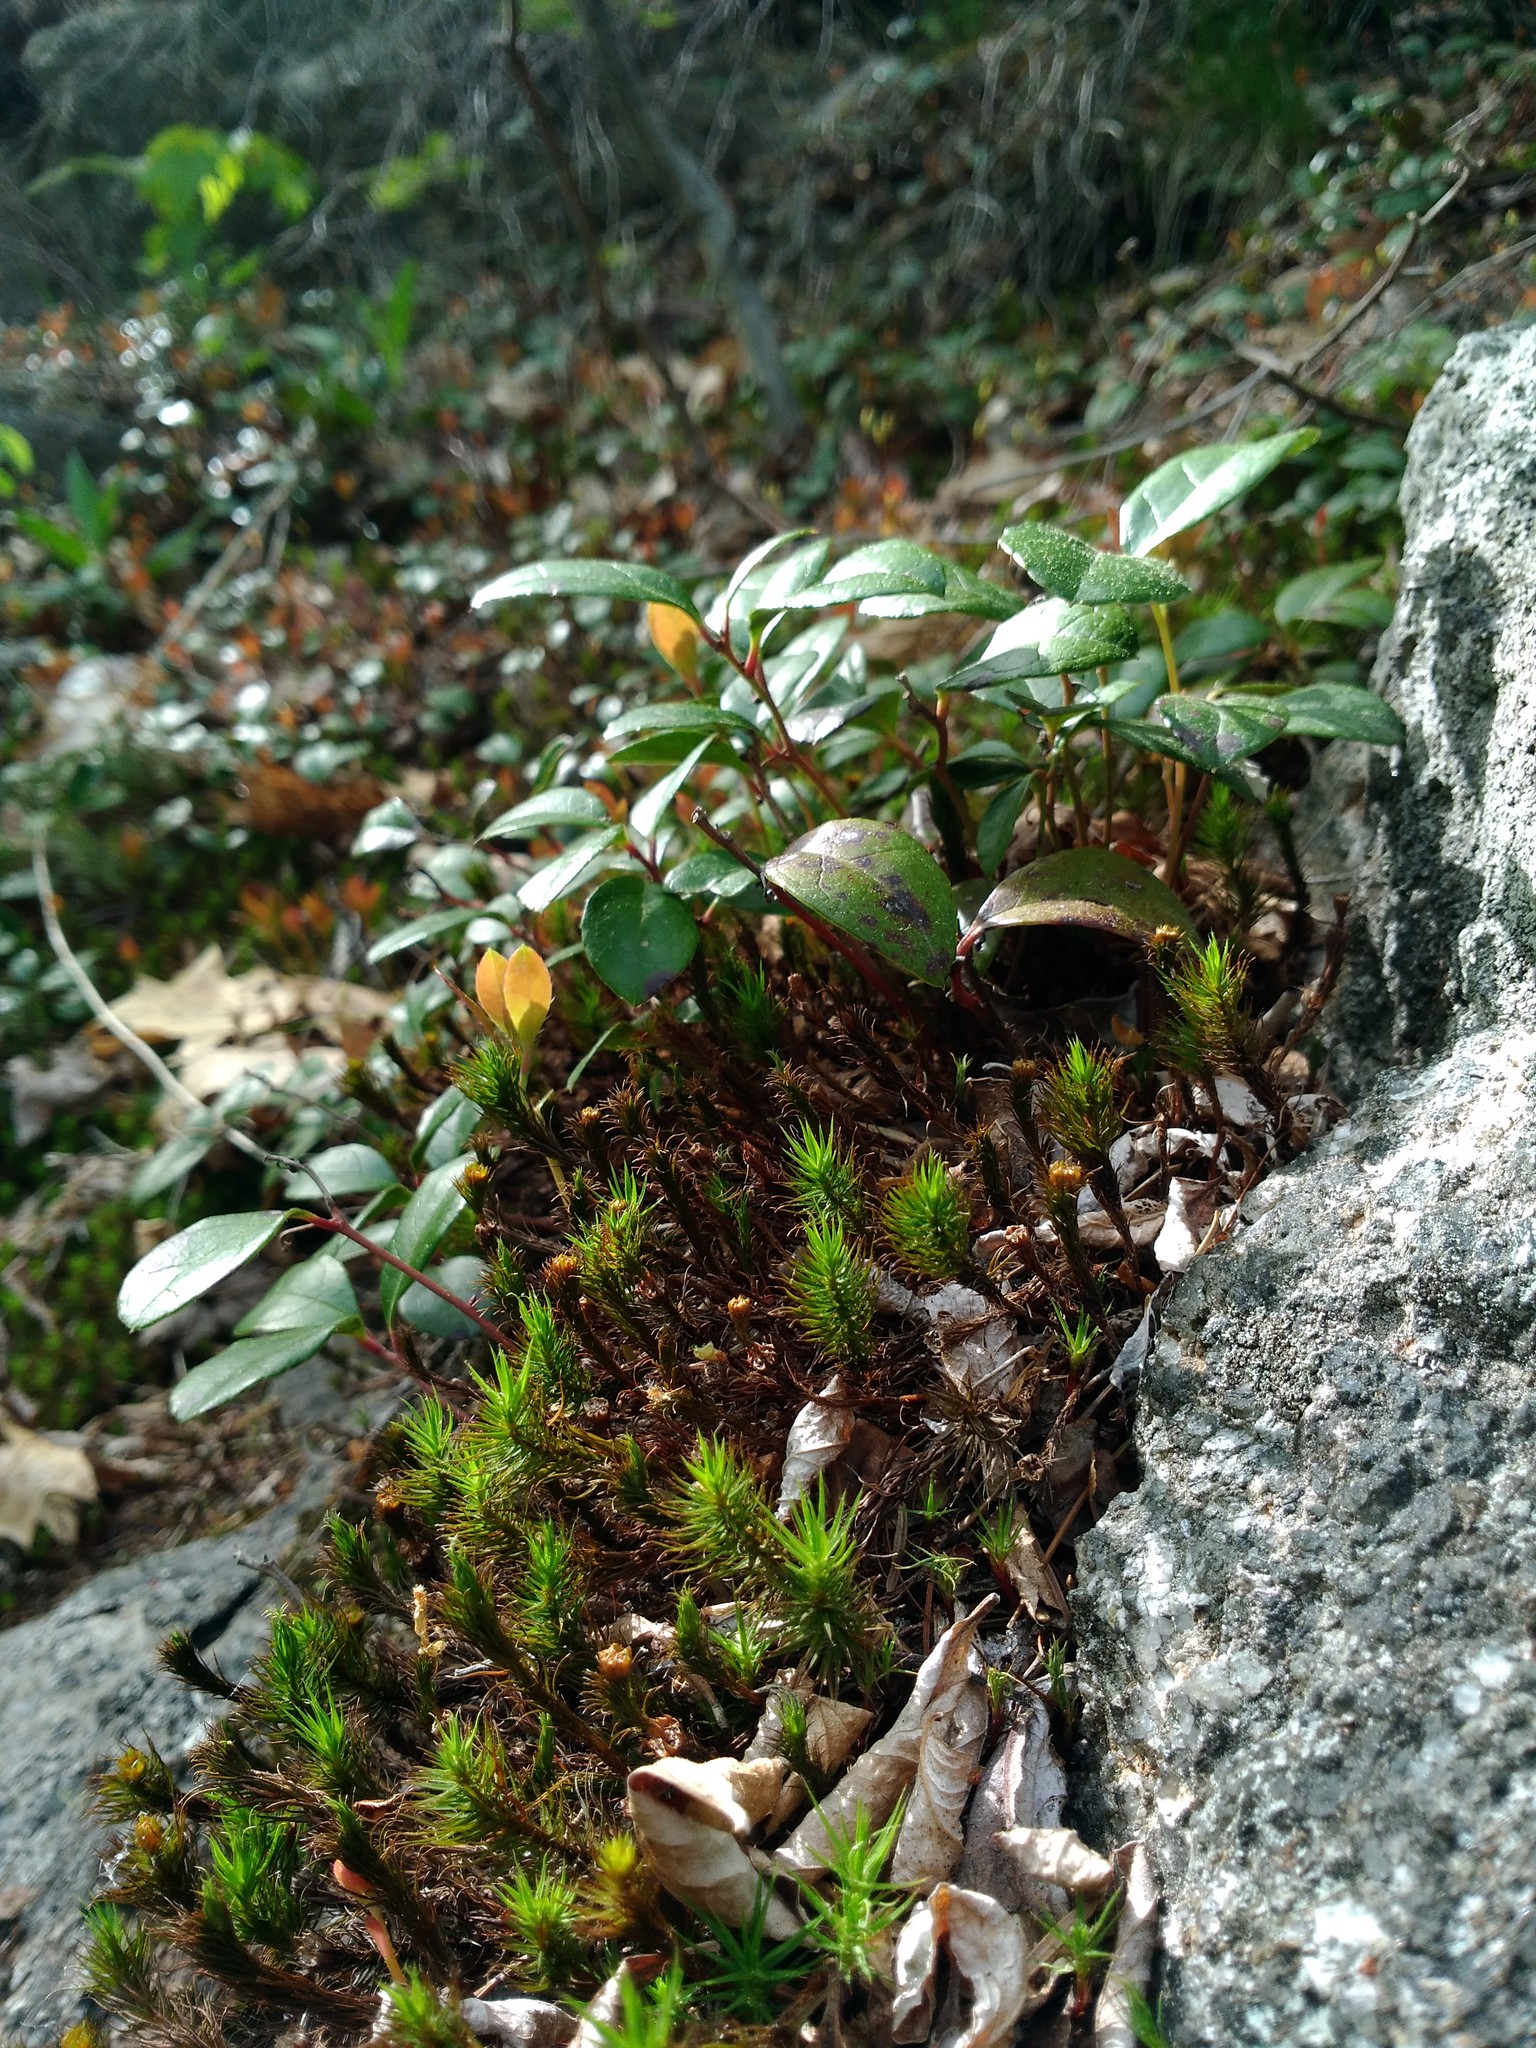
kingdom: Plantae
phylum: Tracheophyta
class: Magnoliopsida
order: Ericales
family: Ericaceae
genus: Gaultheria
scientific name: Gaultheria procumbens
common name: Checkerberry
